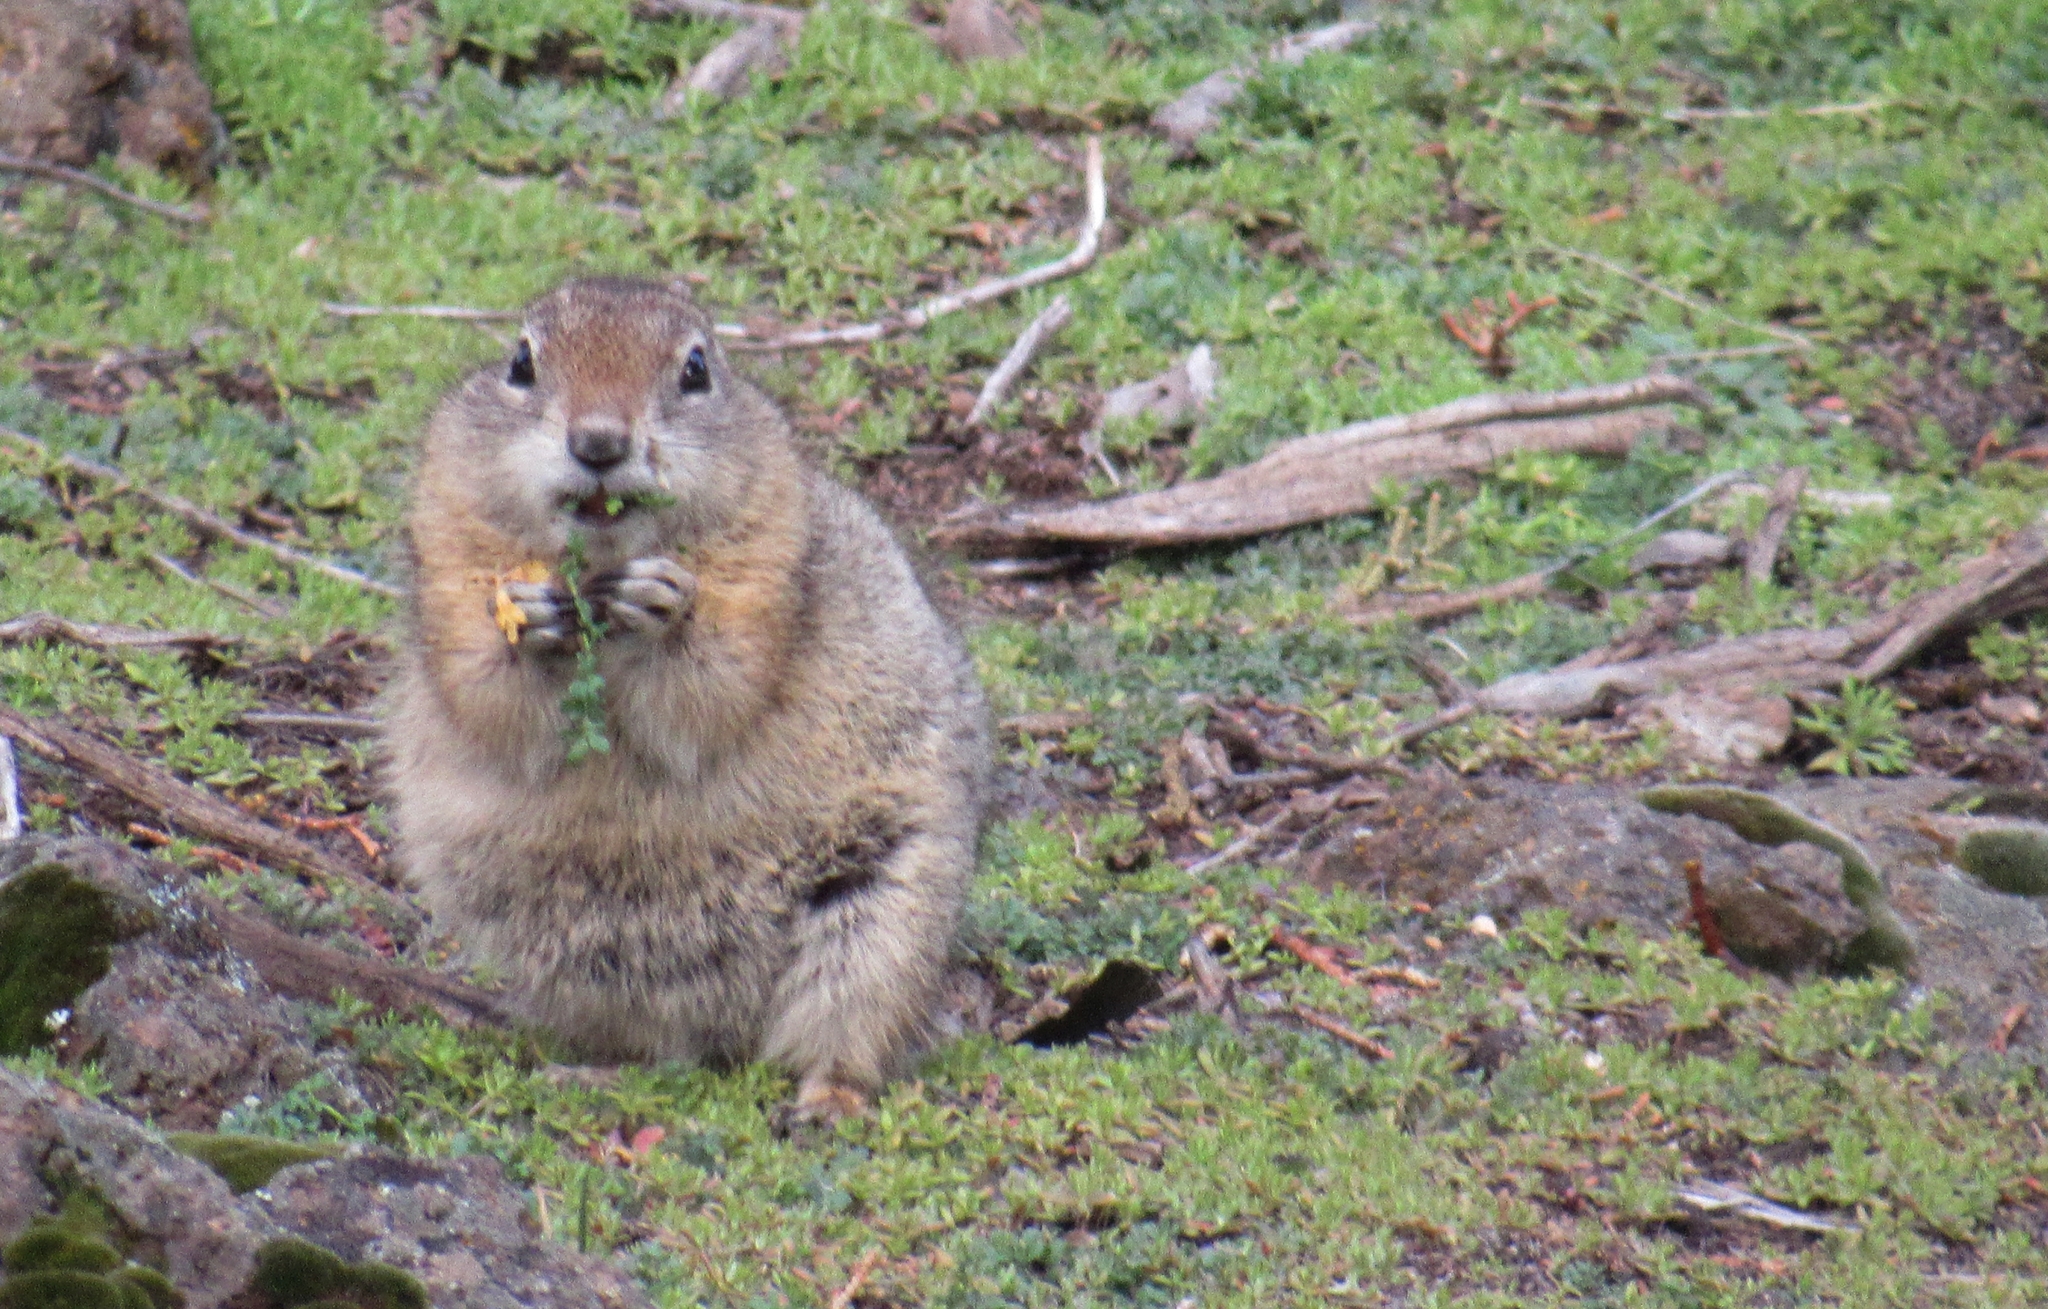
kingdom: Animalia
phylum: Chordata
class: Mammalia
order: Rodentia
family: Sciuridae
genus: Urocitellus
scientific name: Urocitellus beldingi
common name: Belding's ground squirrel
